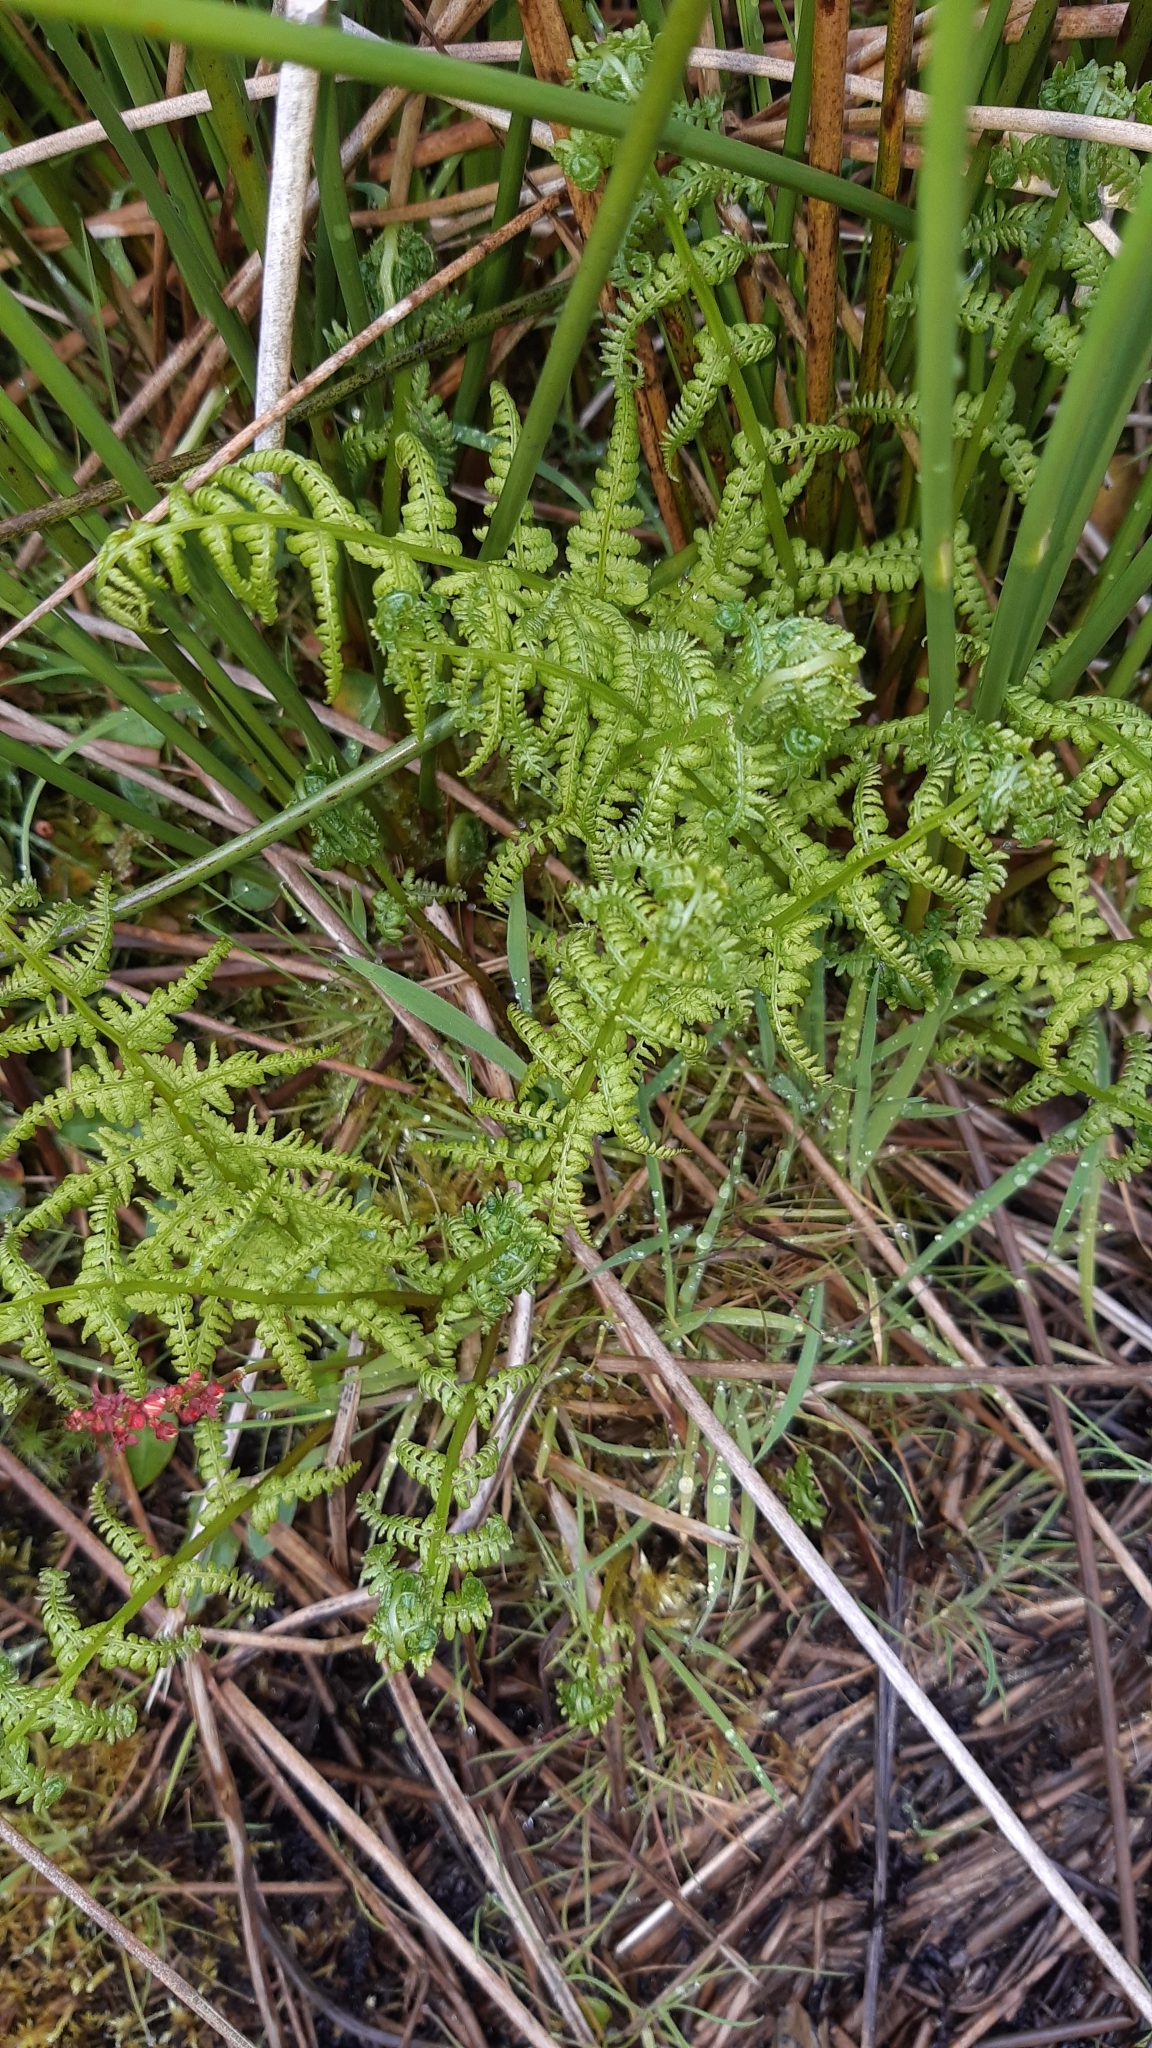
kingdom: Plantae
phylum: Tracheophyta
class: Polypodiopsida
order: Polypodiales
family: Athyriaceae
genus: Athyrium
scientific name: Athyrium filix-femina
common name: Lady fern
